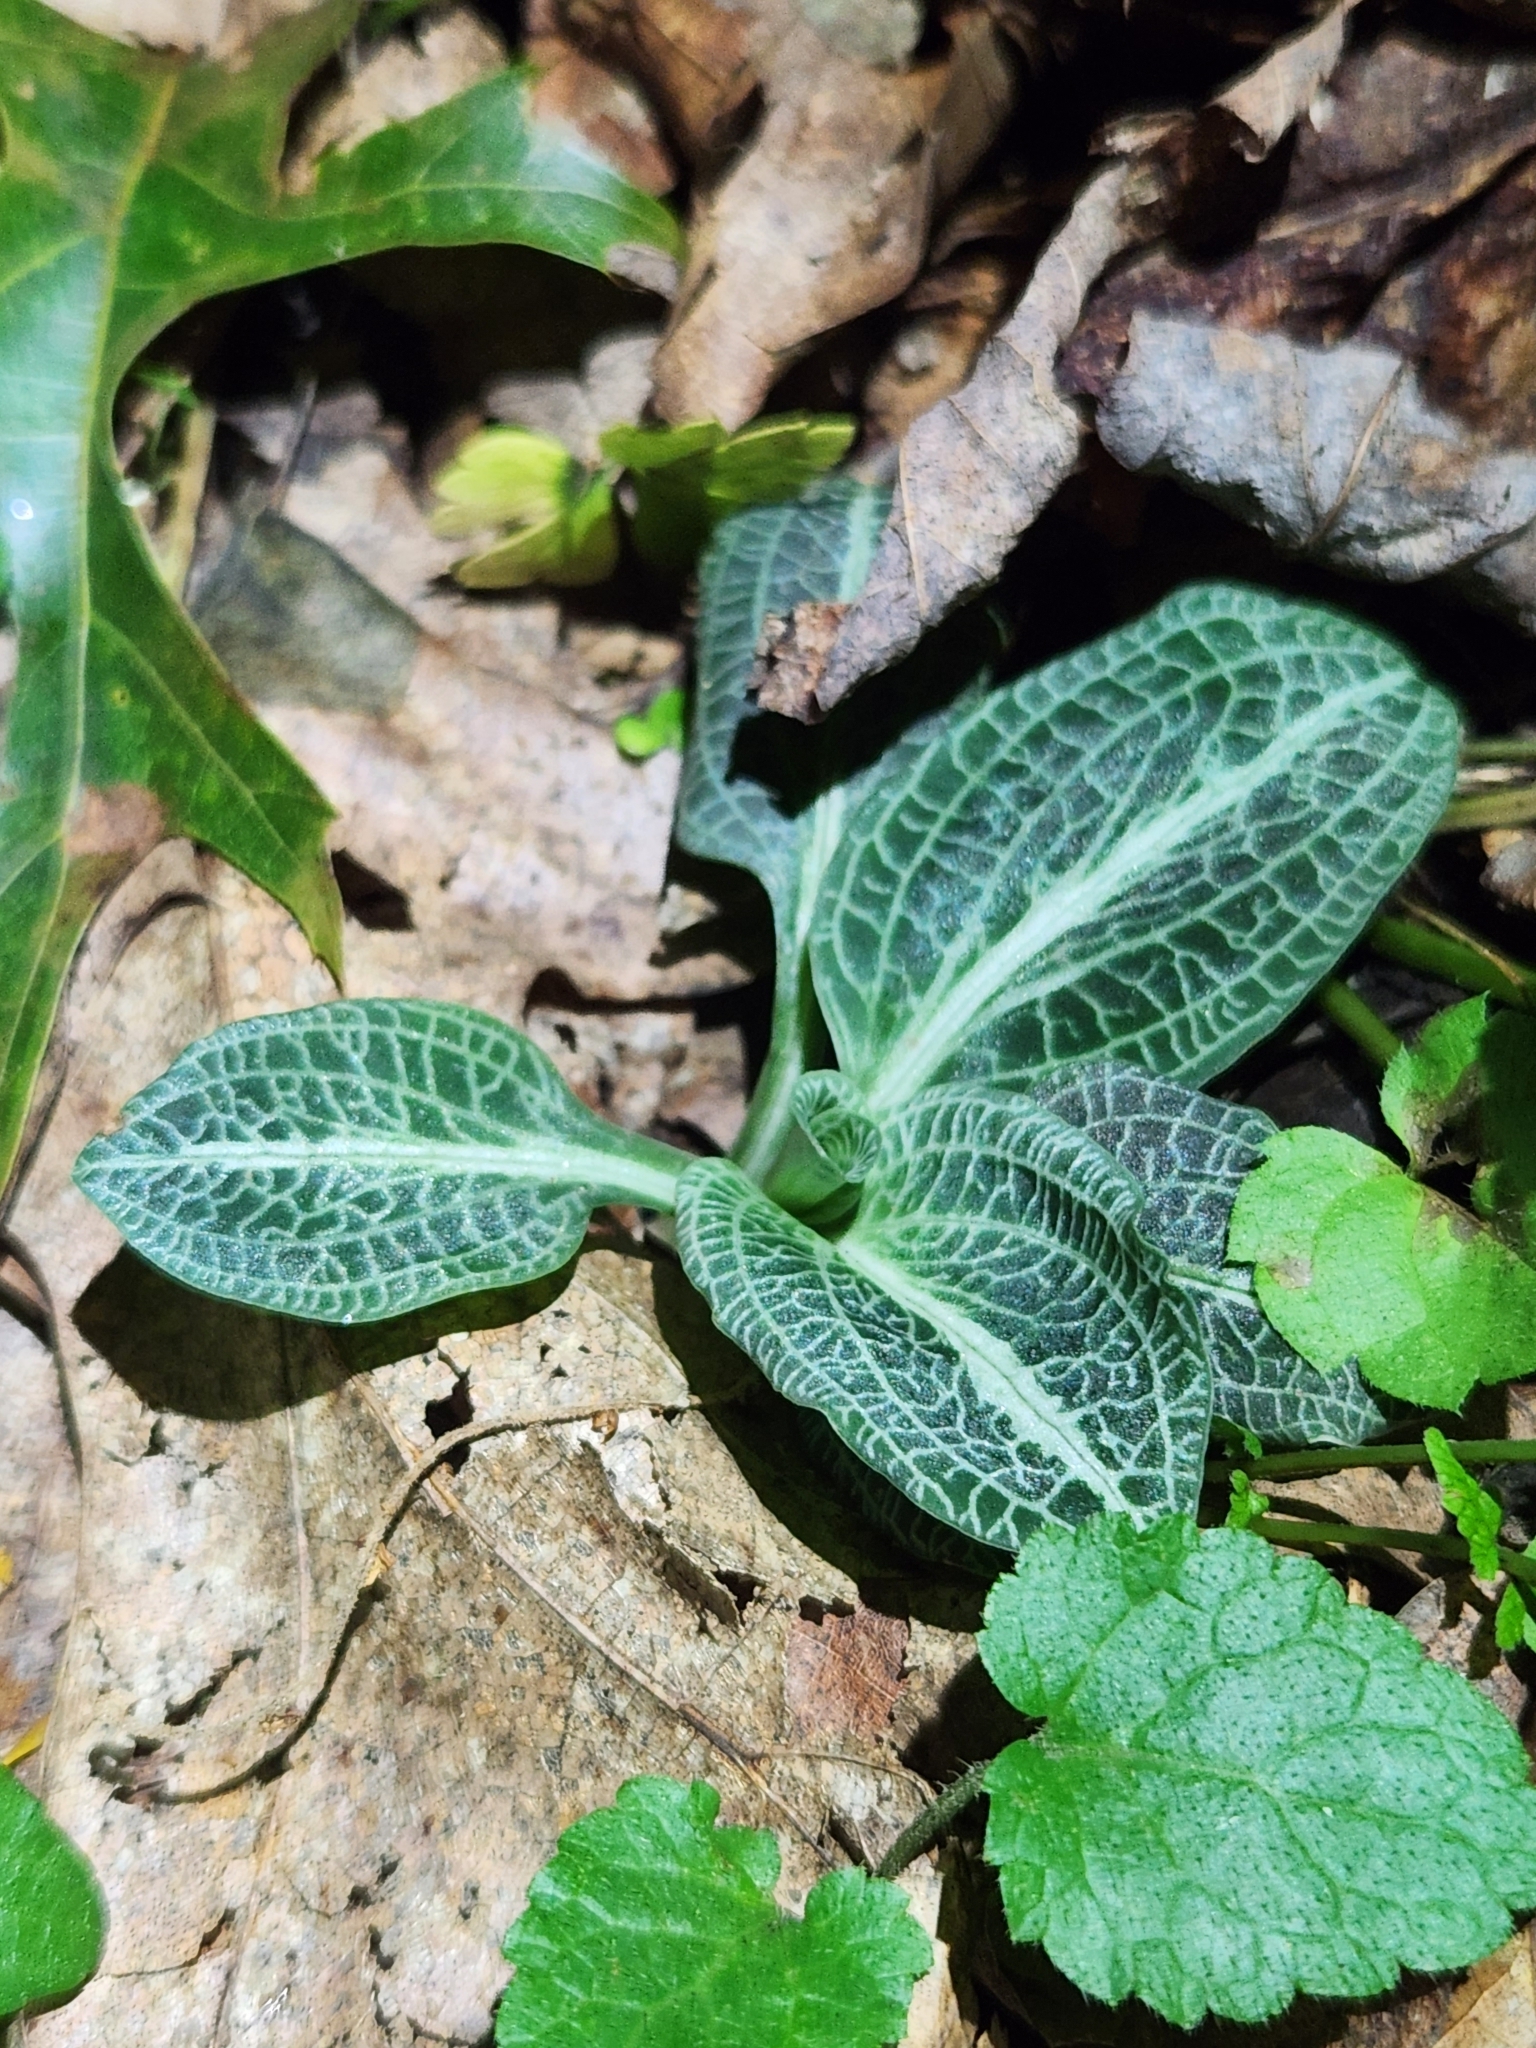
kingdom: Plantae
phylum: Tracheophyta
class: Liliopsida
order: Asparagales
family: Orchidaceae
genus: Goodyera
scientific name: Goodyera pubescens
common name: Downy rattlesnake-plantain
